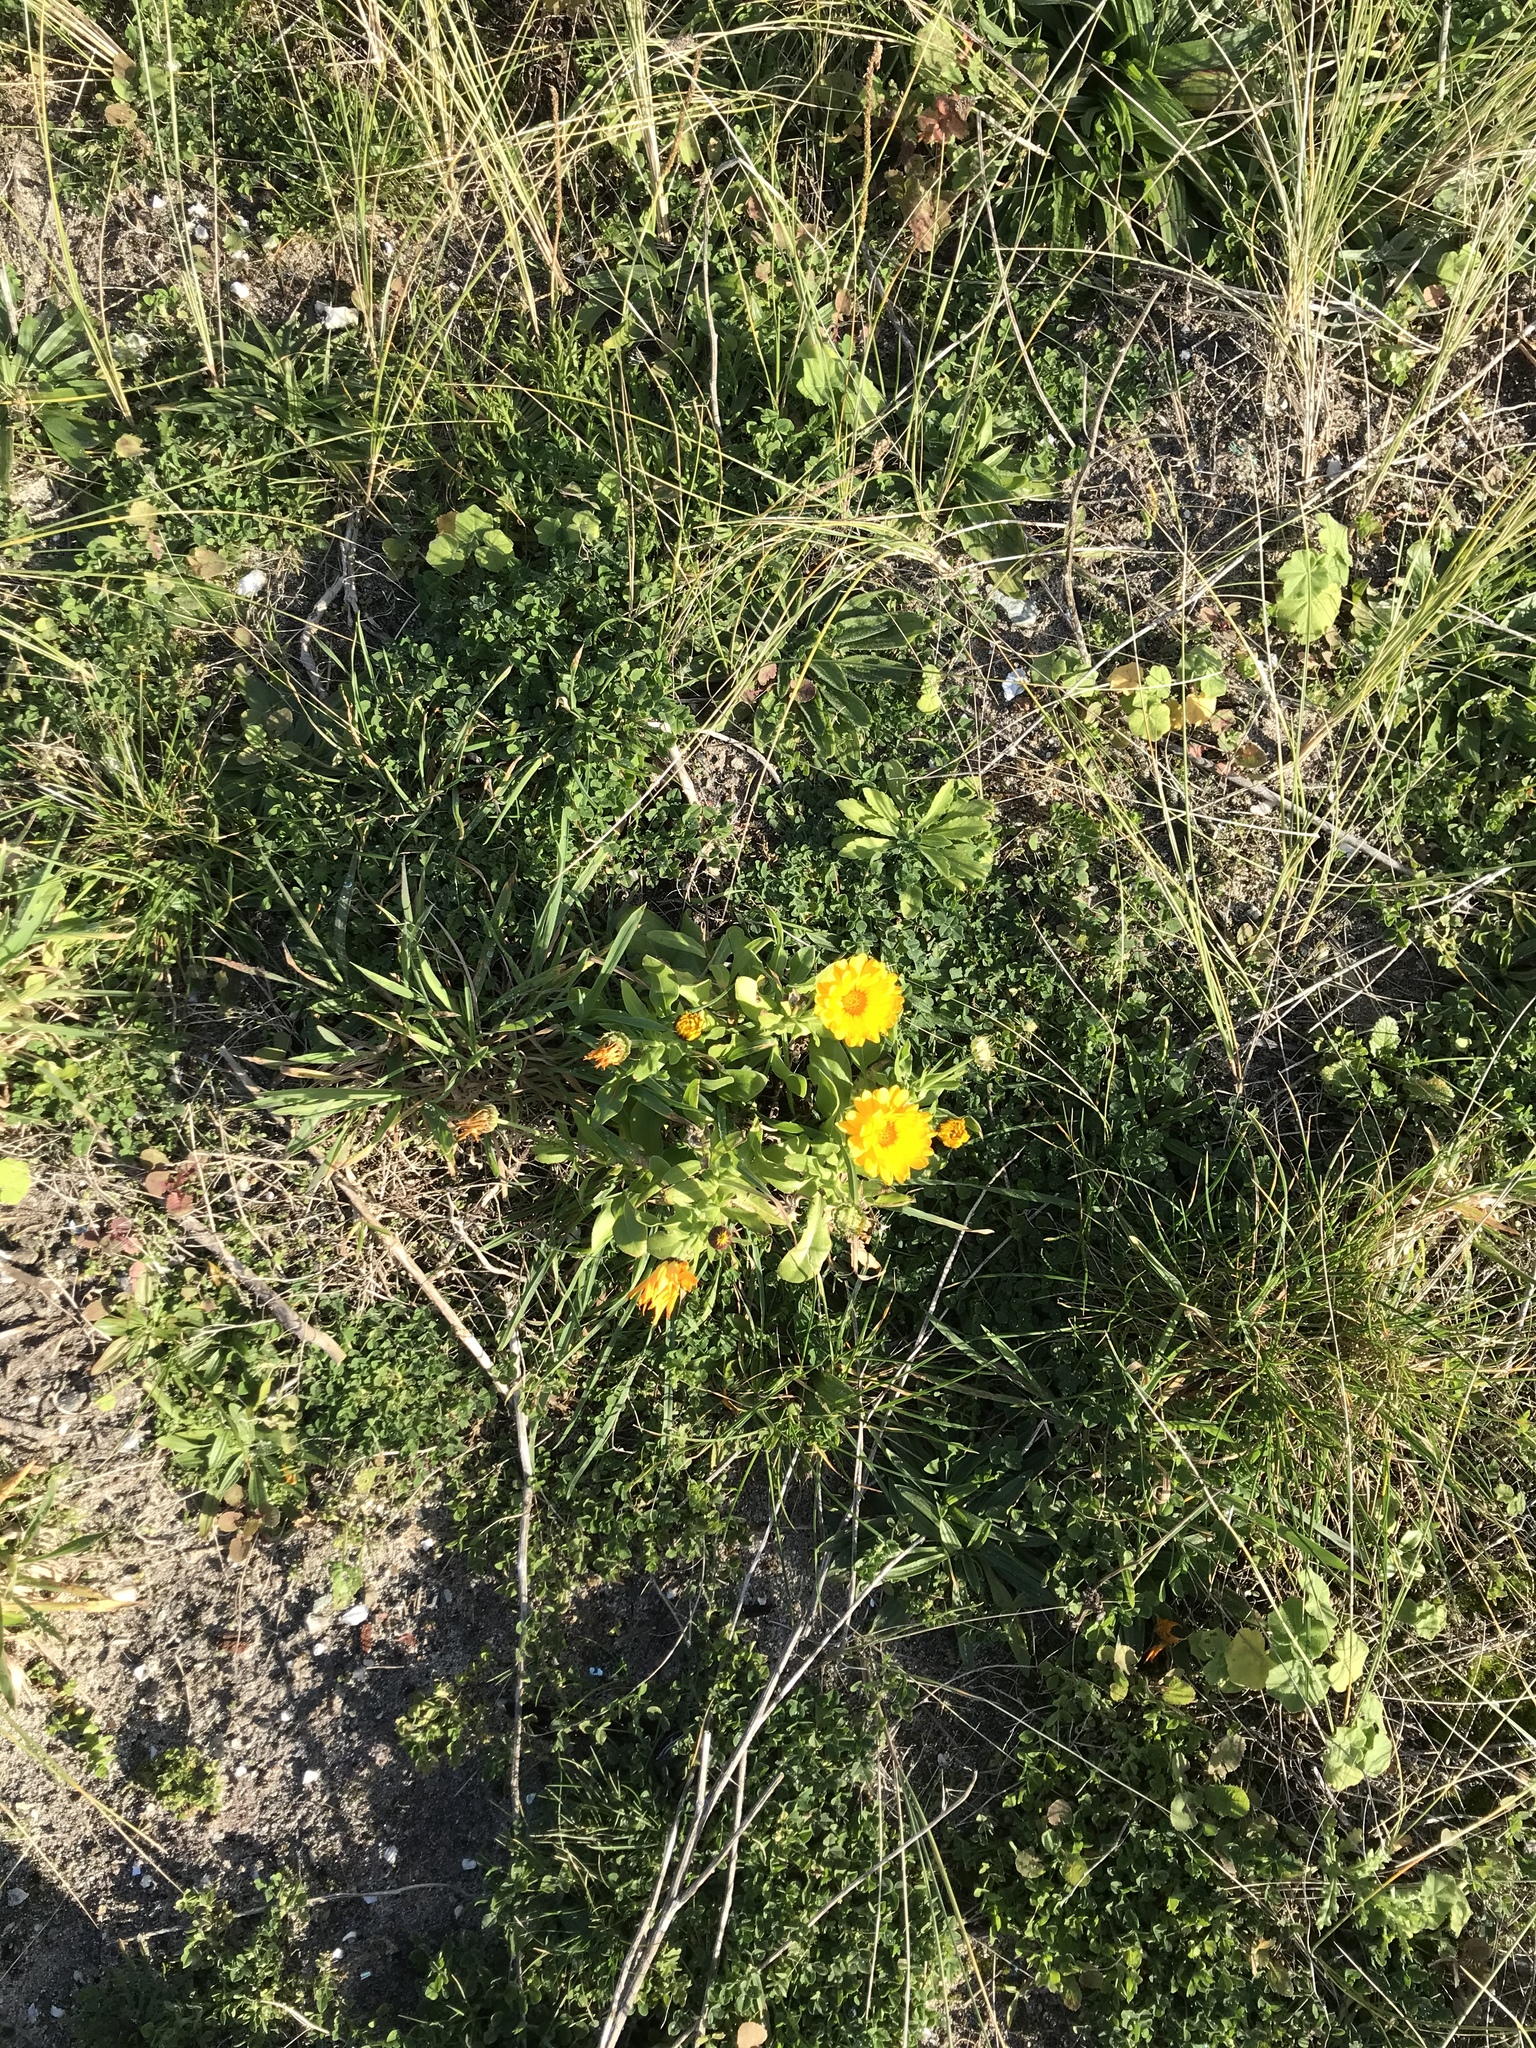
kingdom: Plantae
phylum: Tracheophyta
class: Magnoliopsida
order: Asterales
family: Asteraceae
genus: Calendula
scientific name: Calendula officinalis
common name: Pot marigold
